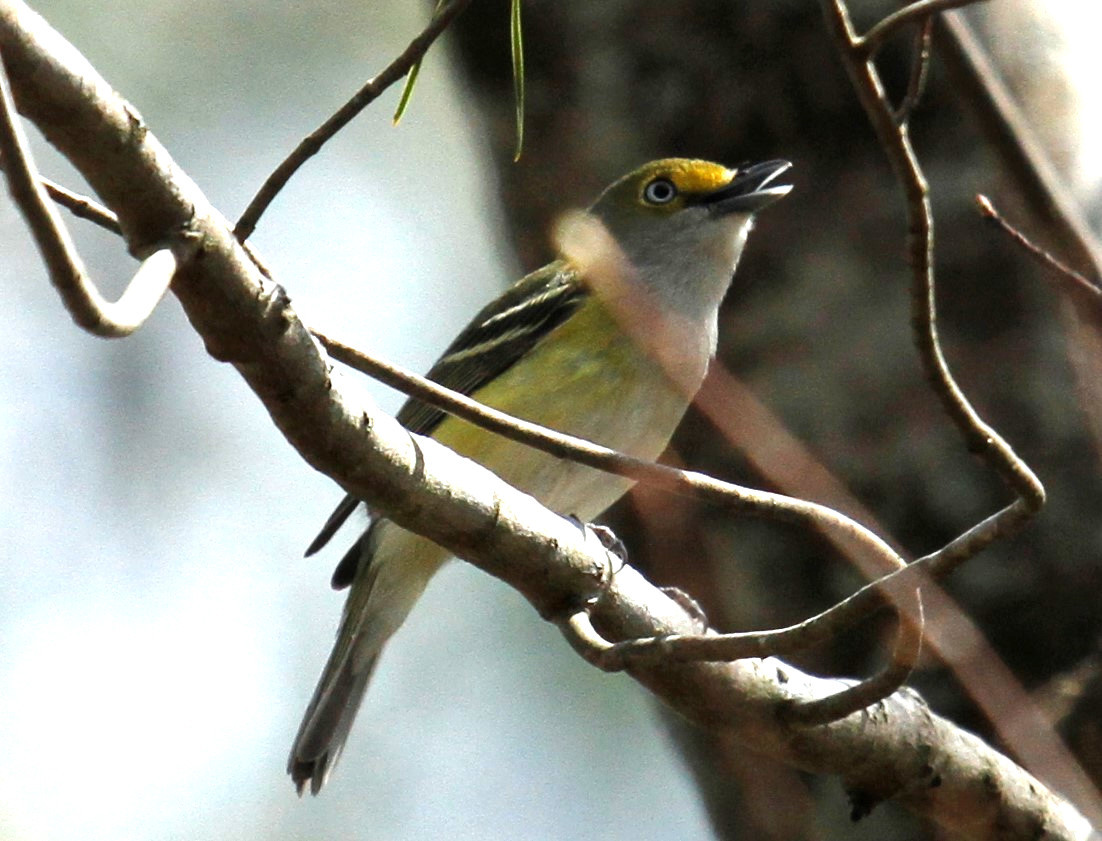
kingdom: Animalia
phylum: Chordata
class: Aves
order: Passeriformes
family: Vireonidae
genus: Vireo
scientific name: Vireo griseus
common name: White-eyed vireo
